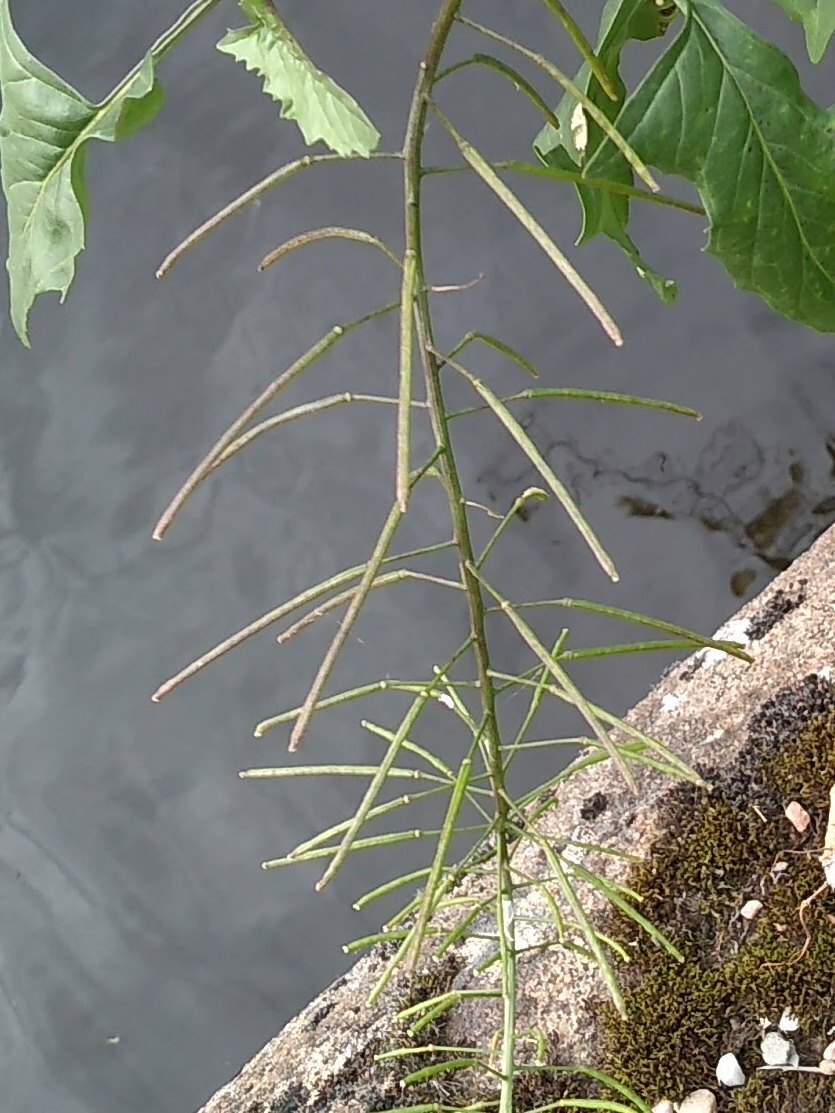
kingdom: Plantae
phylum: Tracheophyta
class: Magnoliopsida
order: Brassicales
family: Brassicaceae
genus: Sisymbrium
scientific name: Sisymbrium loeselii
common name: False london-rocket
